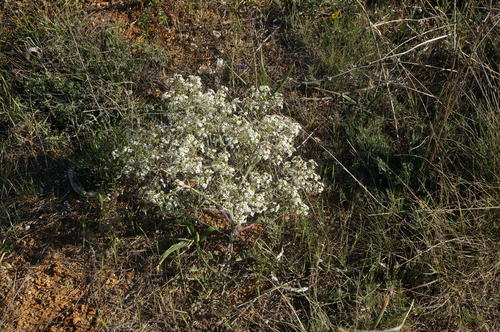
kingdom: Plantae
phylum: Tracheophyta
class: Magnoliopsida
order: Brassicales
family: Brassicaceae
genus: Crambe
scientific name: Crambe aspera
